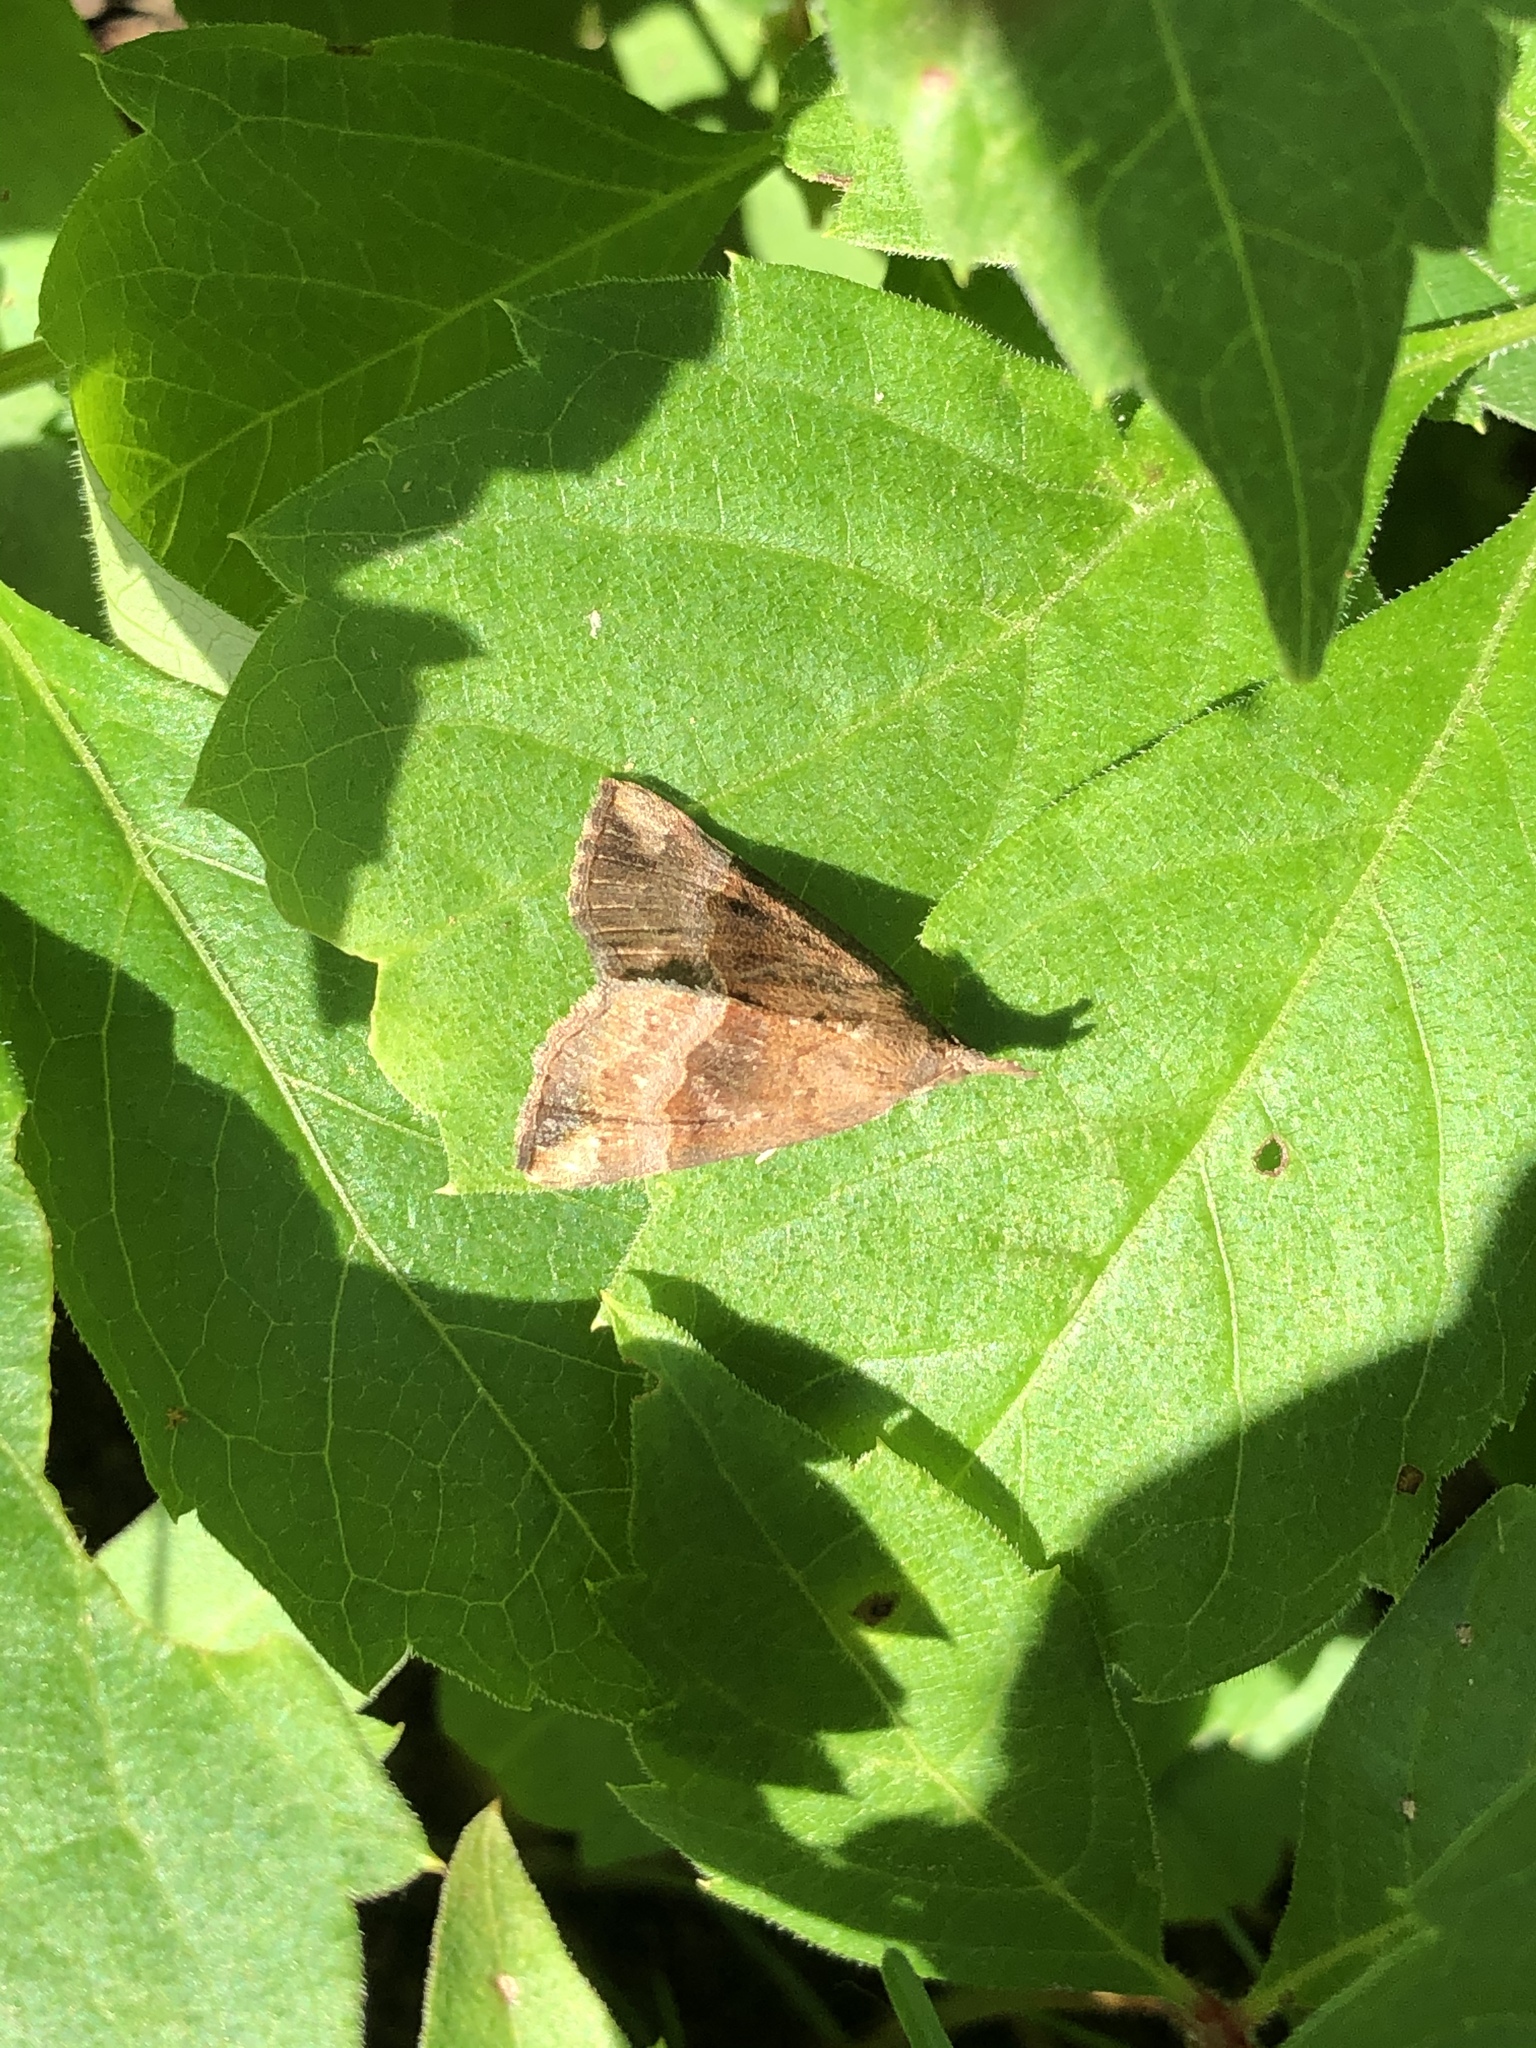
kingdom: Animalia
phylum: Arthropoda
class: Insecta
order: Lepidoptera
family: Erebidae
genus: Hypena
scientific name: Hypena madefactalis
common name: Gray-edged snout
